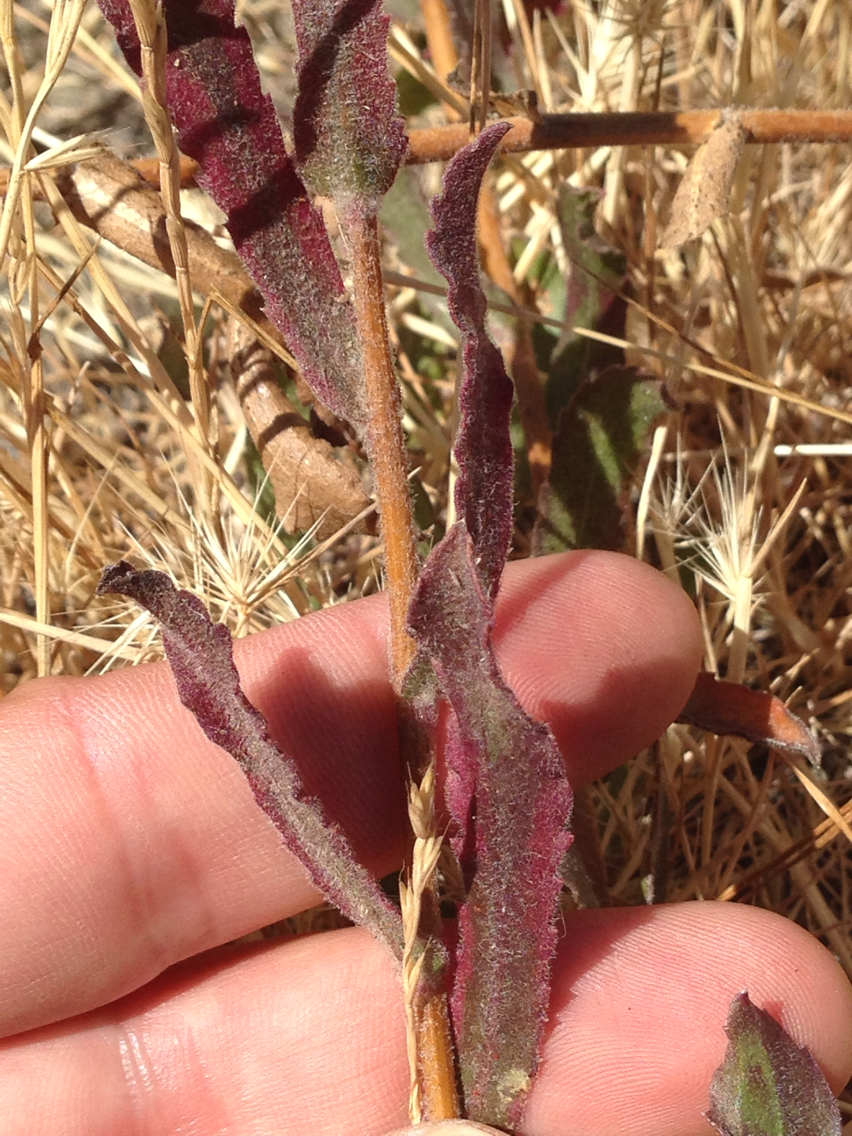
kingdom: Plantae
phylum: Tracheophyta
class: Magnoliopsida
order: Asterales
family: Asteraceae
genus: Grindelia
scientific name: Grindelia hirsutula
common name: Hairy gumweed
